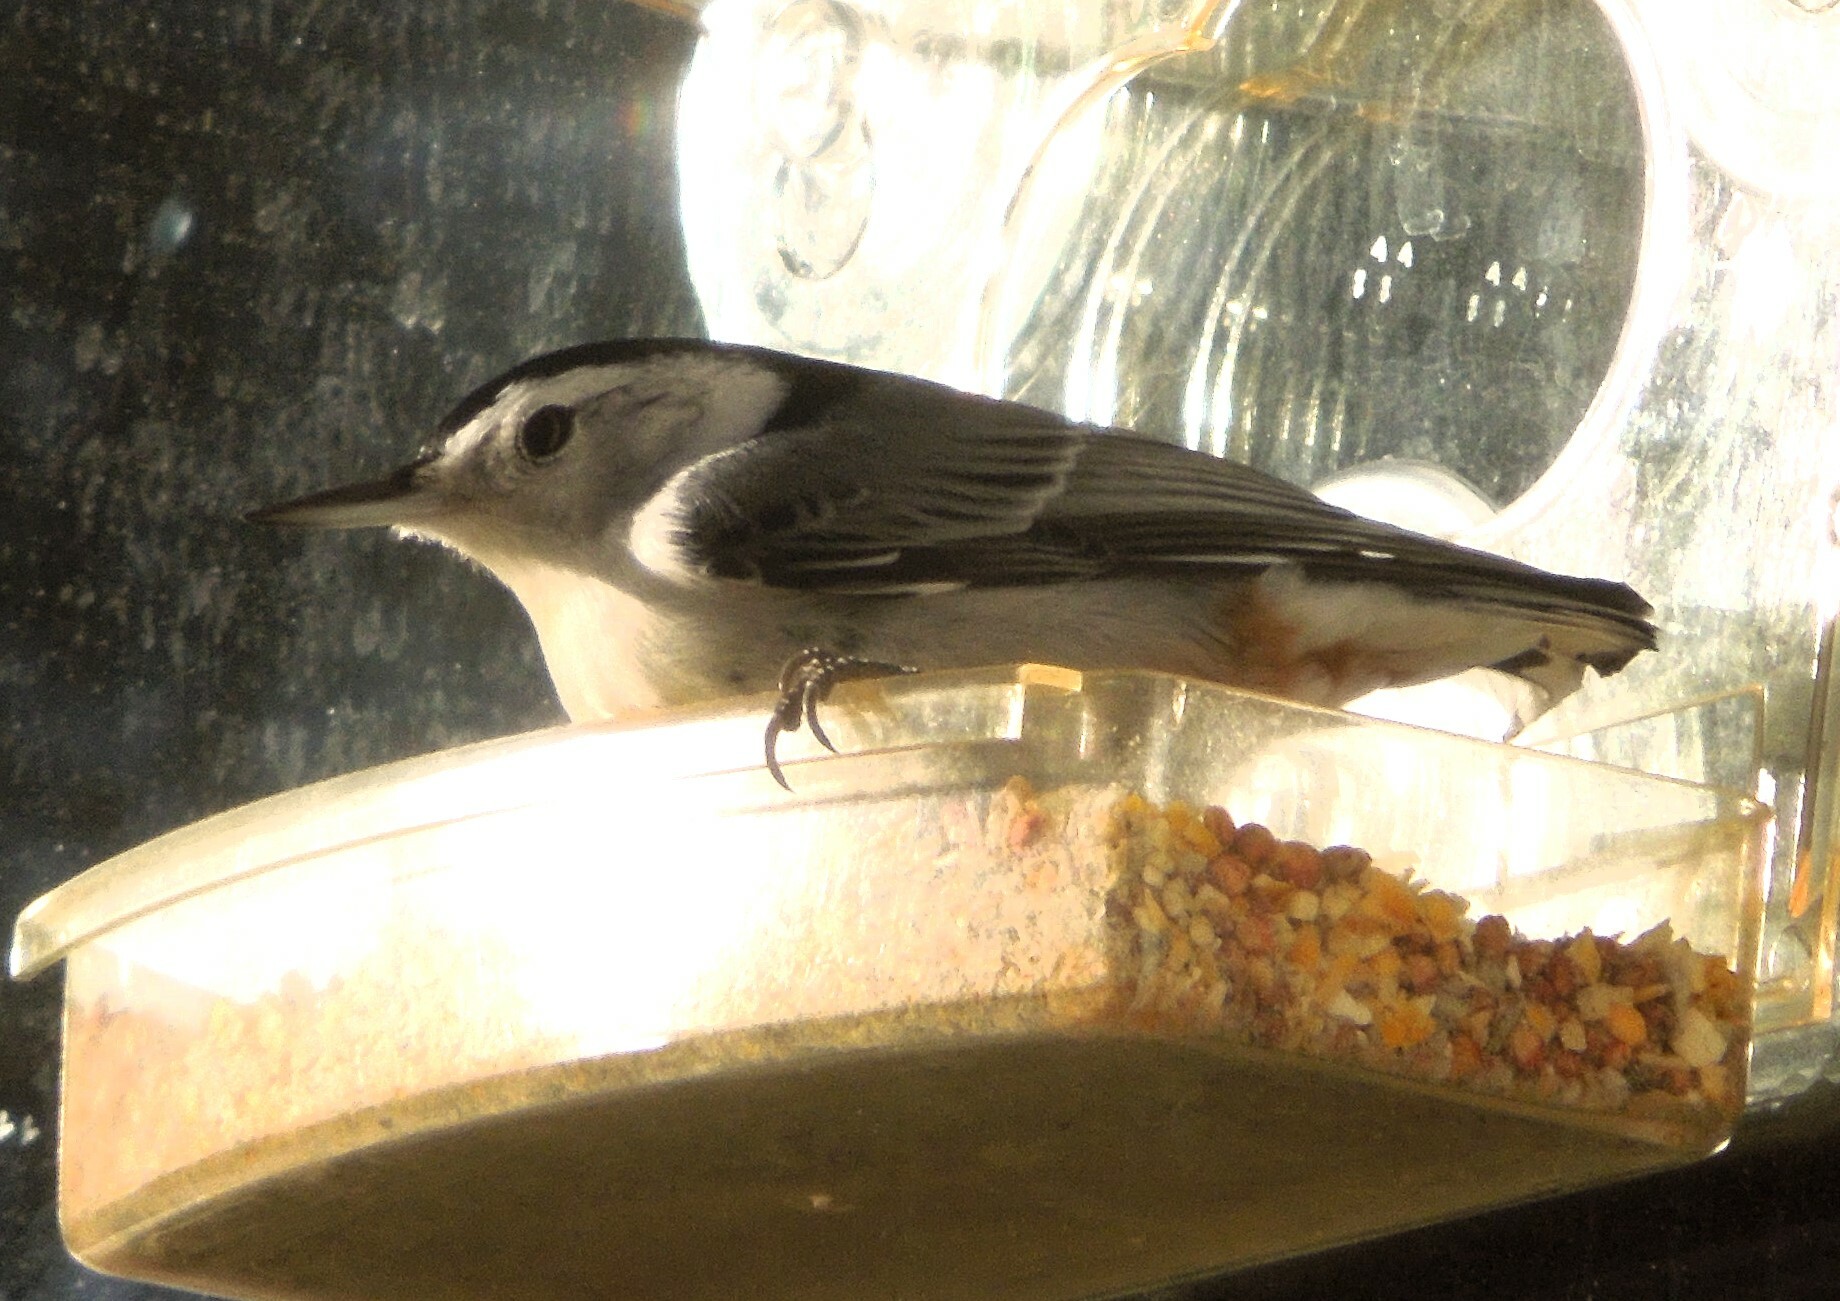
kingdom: Animalia
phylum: Chordata
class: Aves
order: Passeriformes
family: Sittidae
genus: Sitta
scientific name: Sitta carolinensis
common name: White-breasted nuthatch
